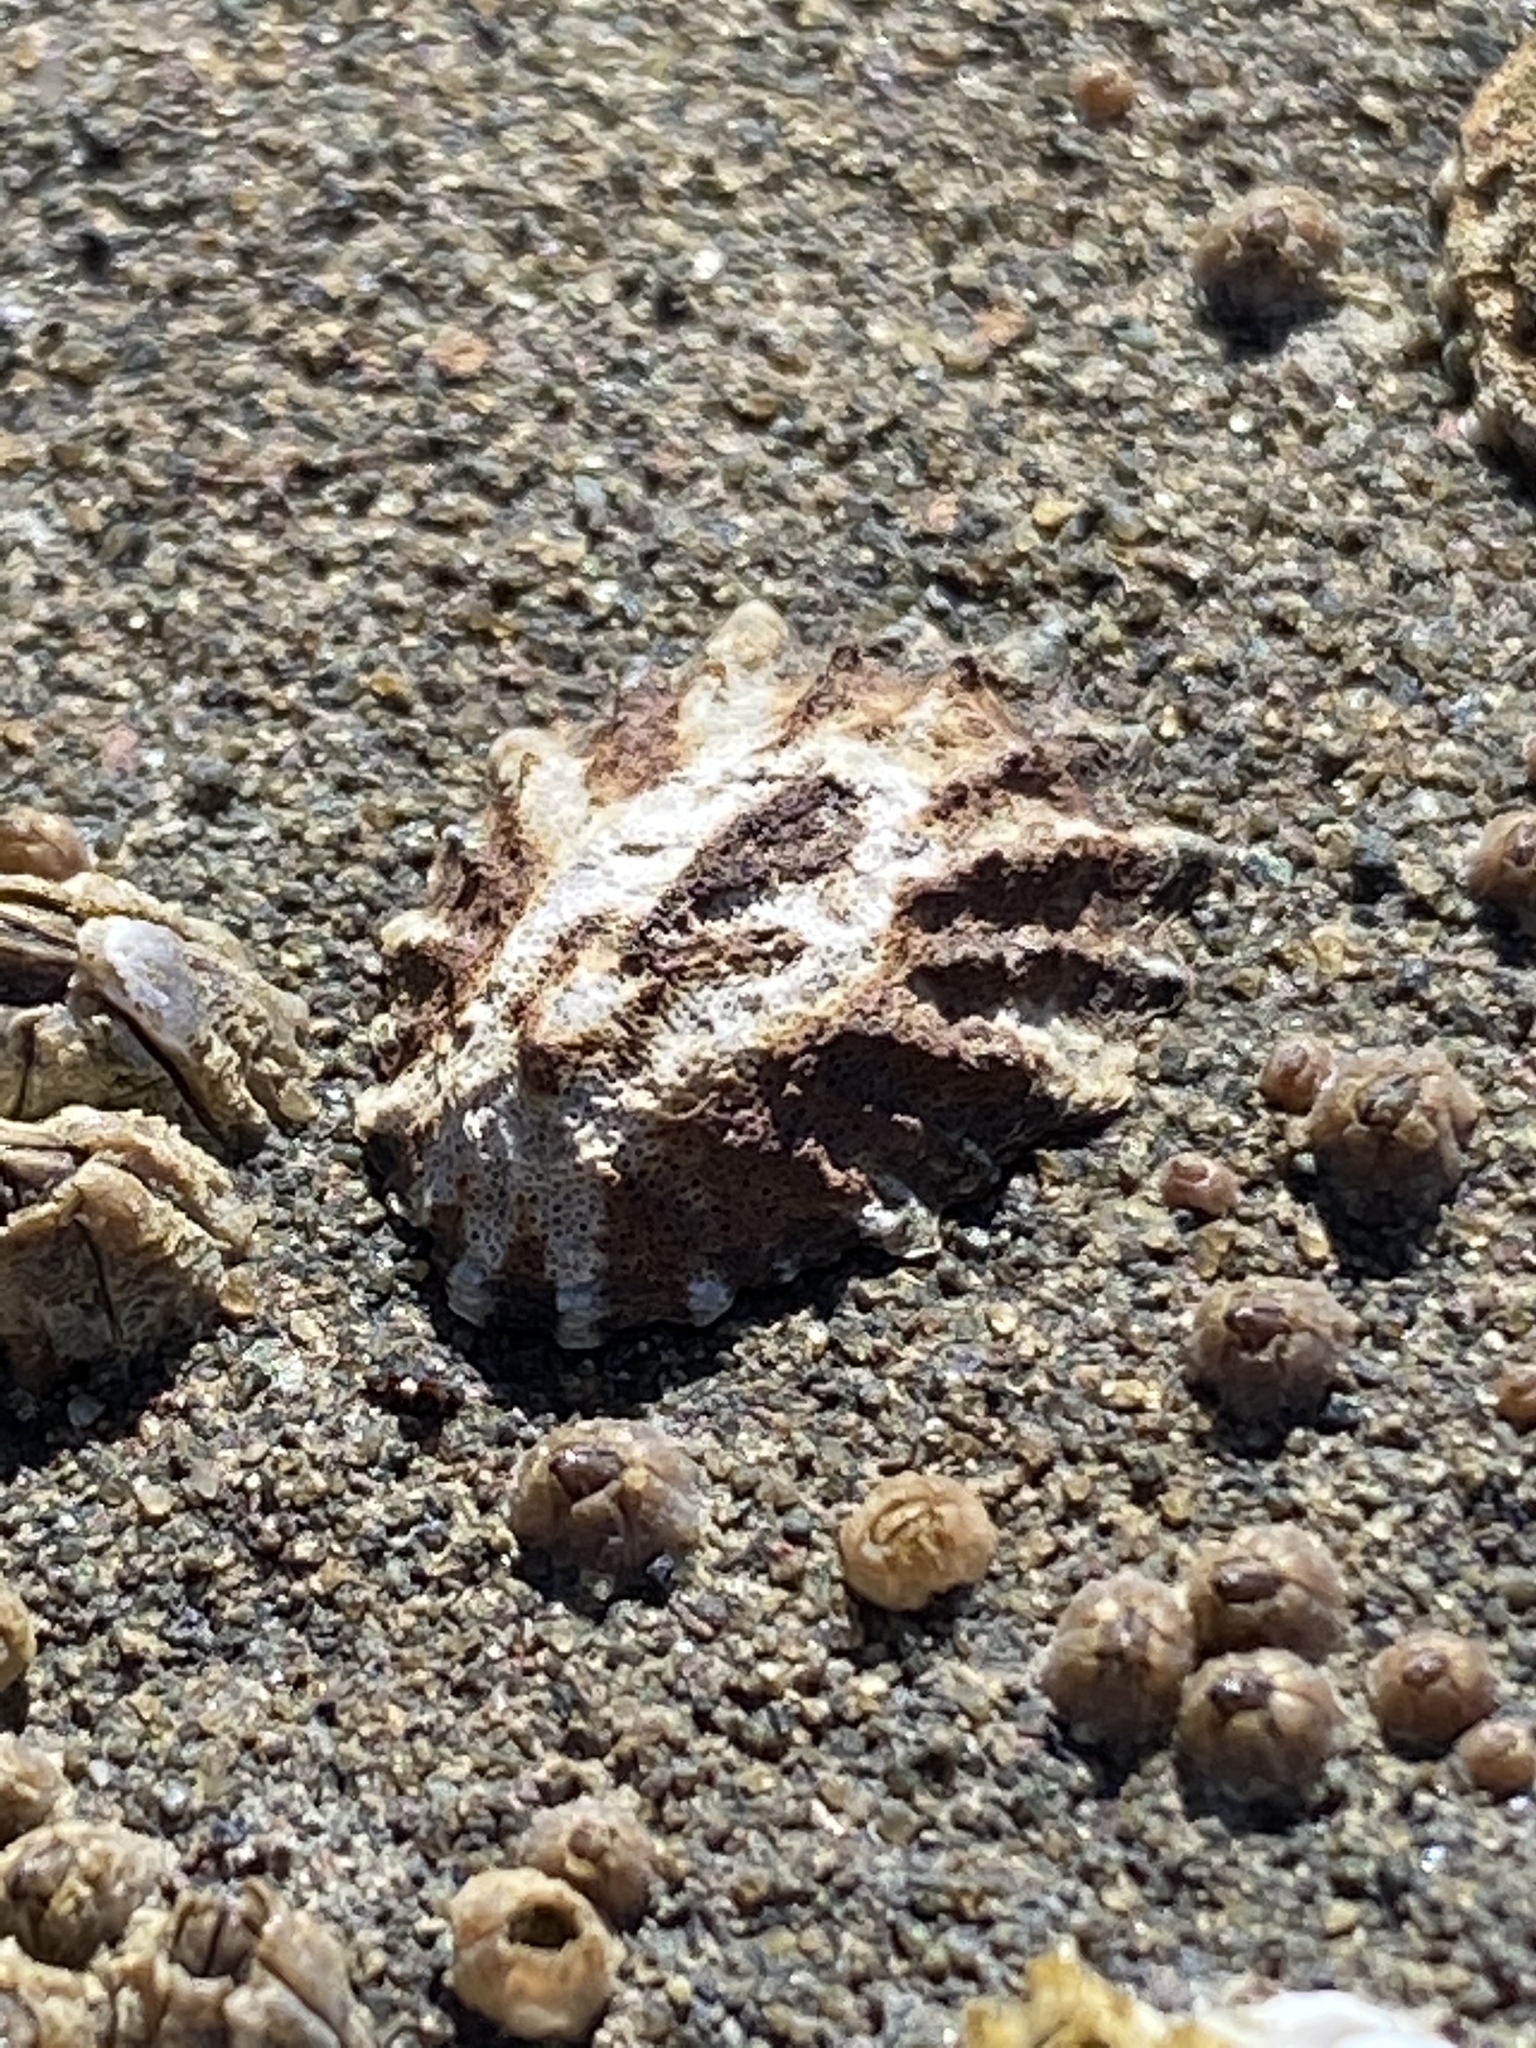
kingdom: Animalia
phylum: Mollusca
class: Gastropoda
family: Lottiidae
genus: Lottia
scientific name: Lottia scabra
